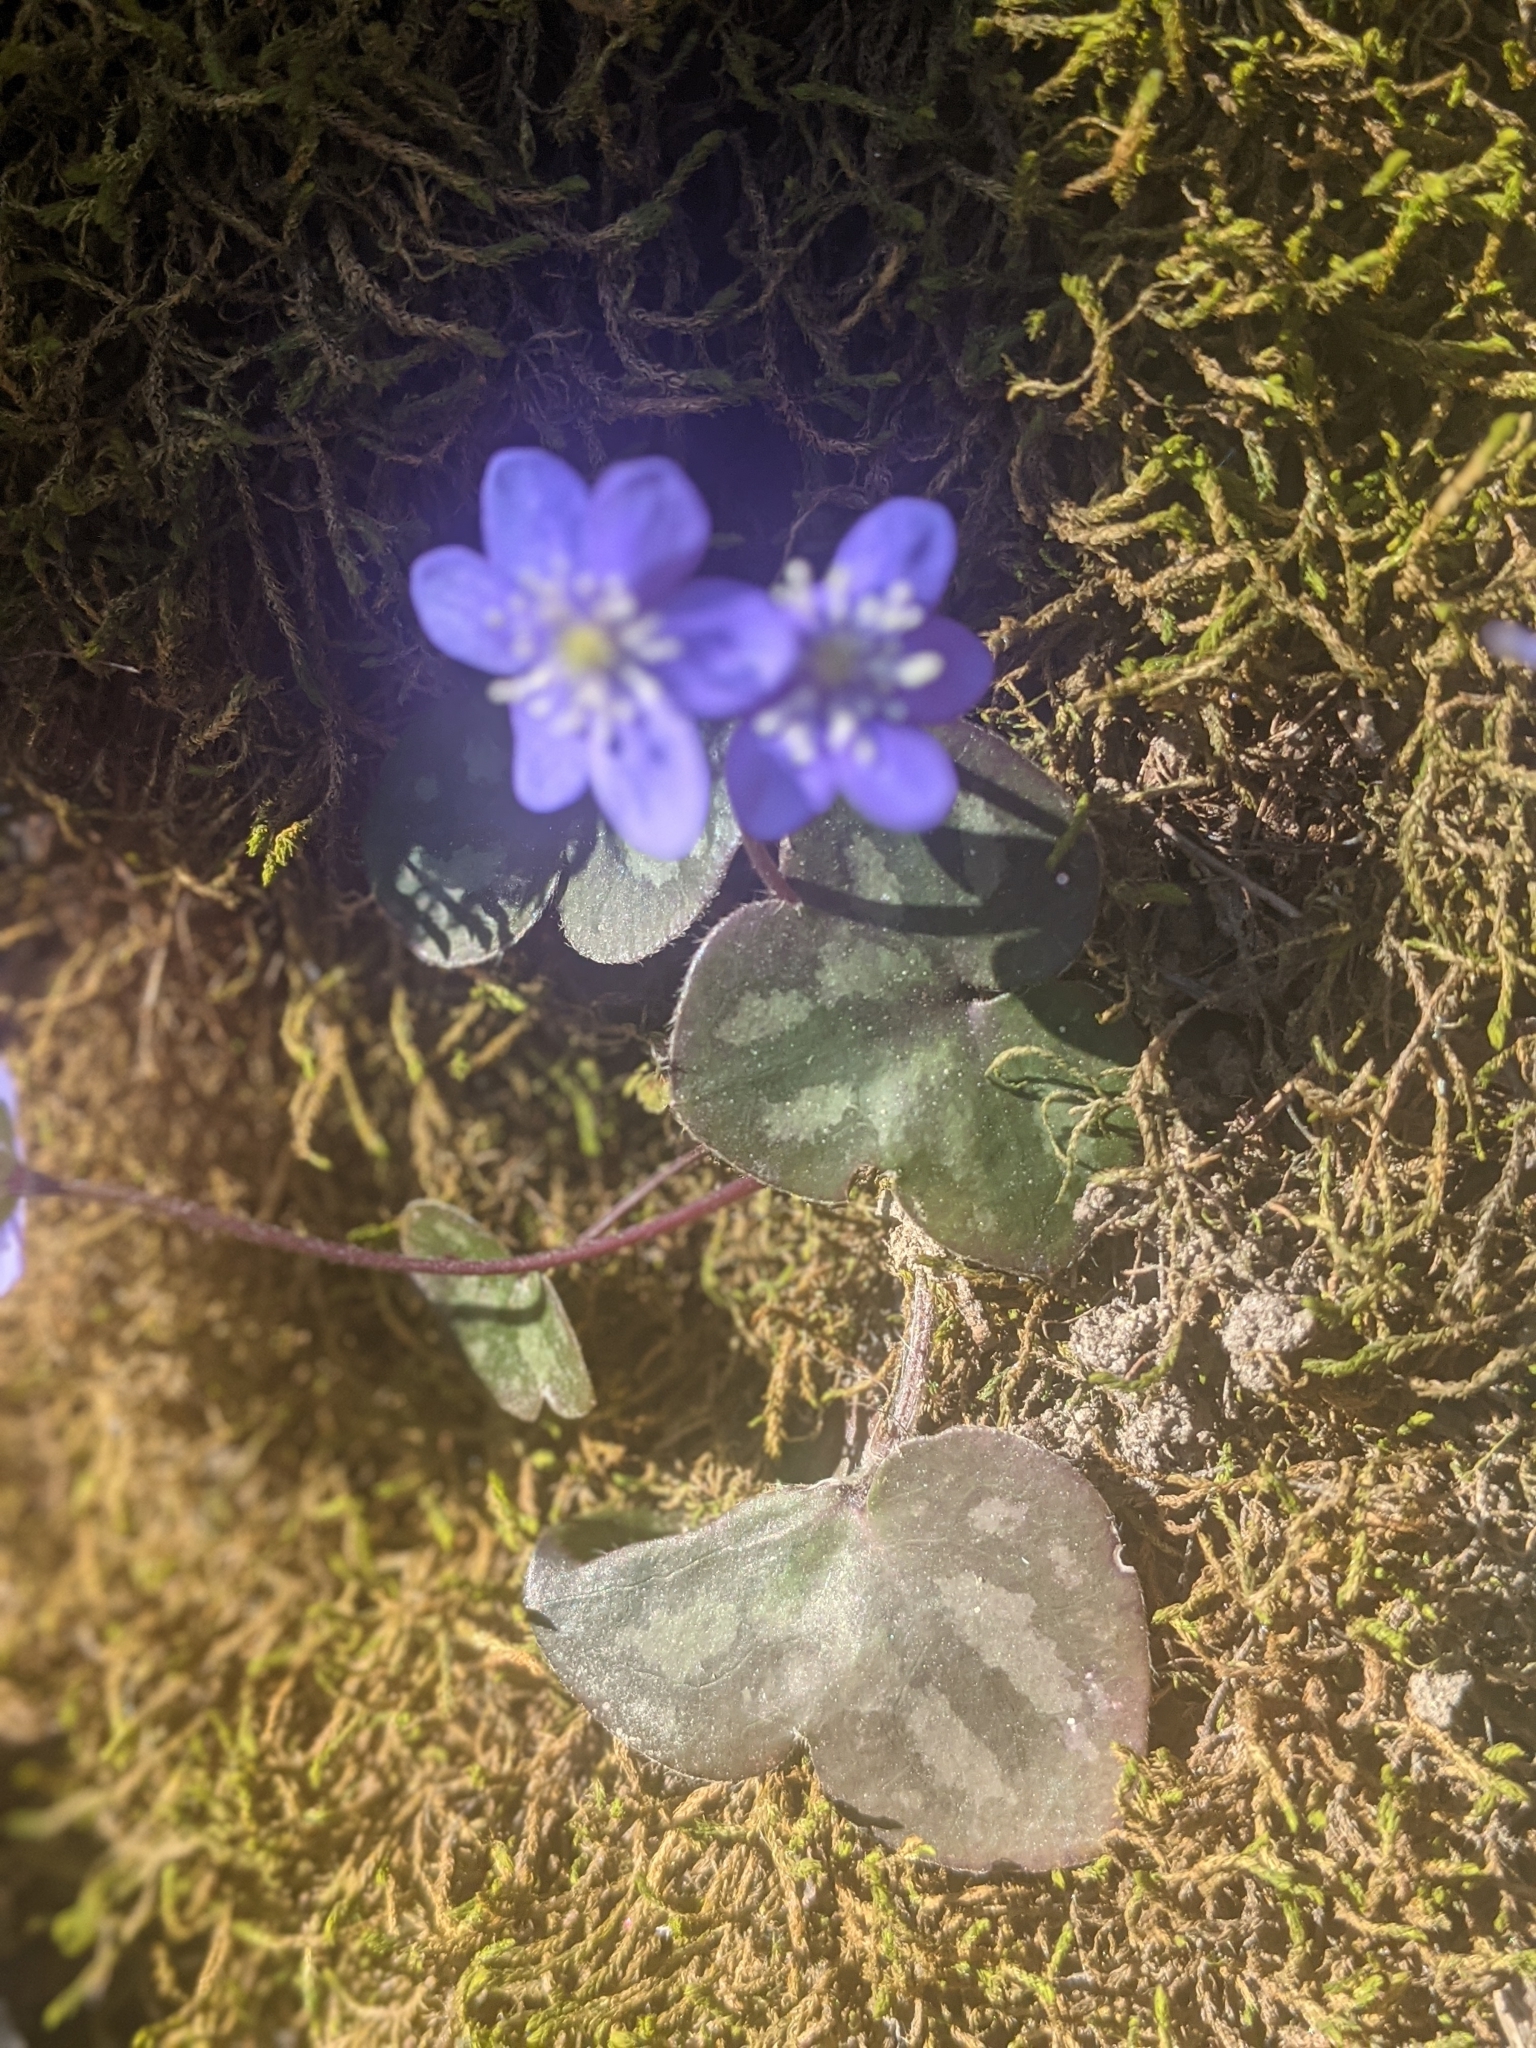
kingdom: Plantae
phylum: Tracheophyta
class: Magnoliopsida
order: Ranunculales
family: Ranunculaceae
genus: Hepatica
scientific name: Hepatica nobilis
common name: Liverleaf
